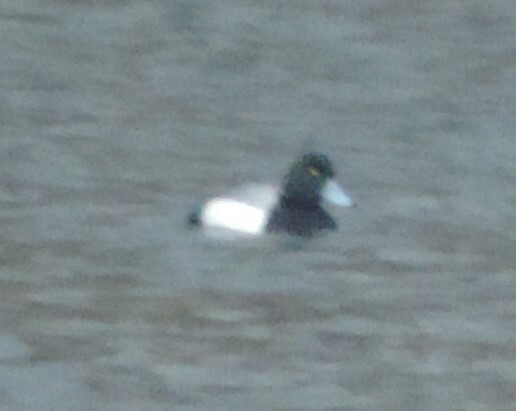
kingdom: Animalia
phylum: Chordata
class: Aves
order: Anseriformes
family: Anatidae
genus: Aythya
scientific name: Aythya marila
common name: Greater scaup
